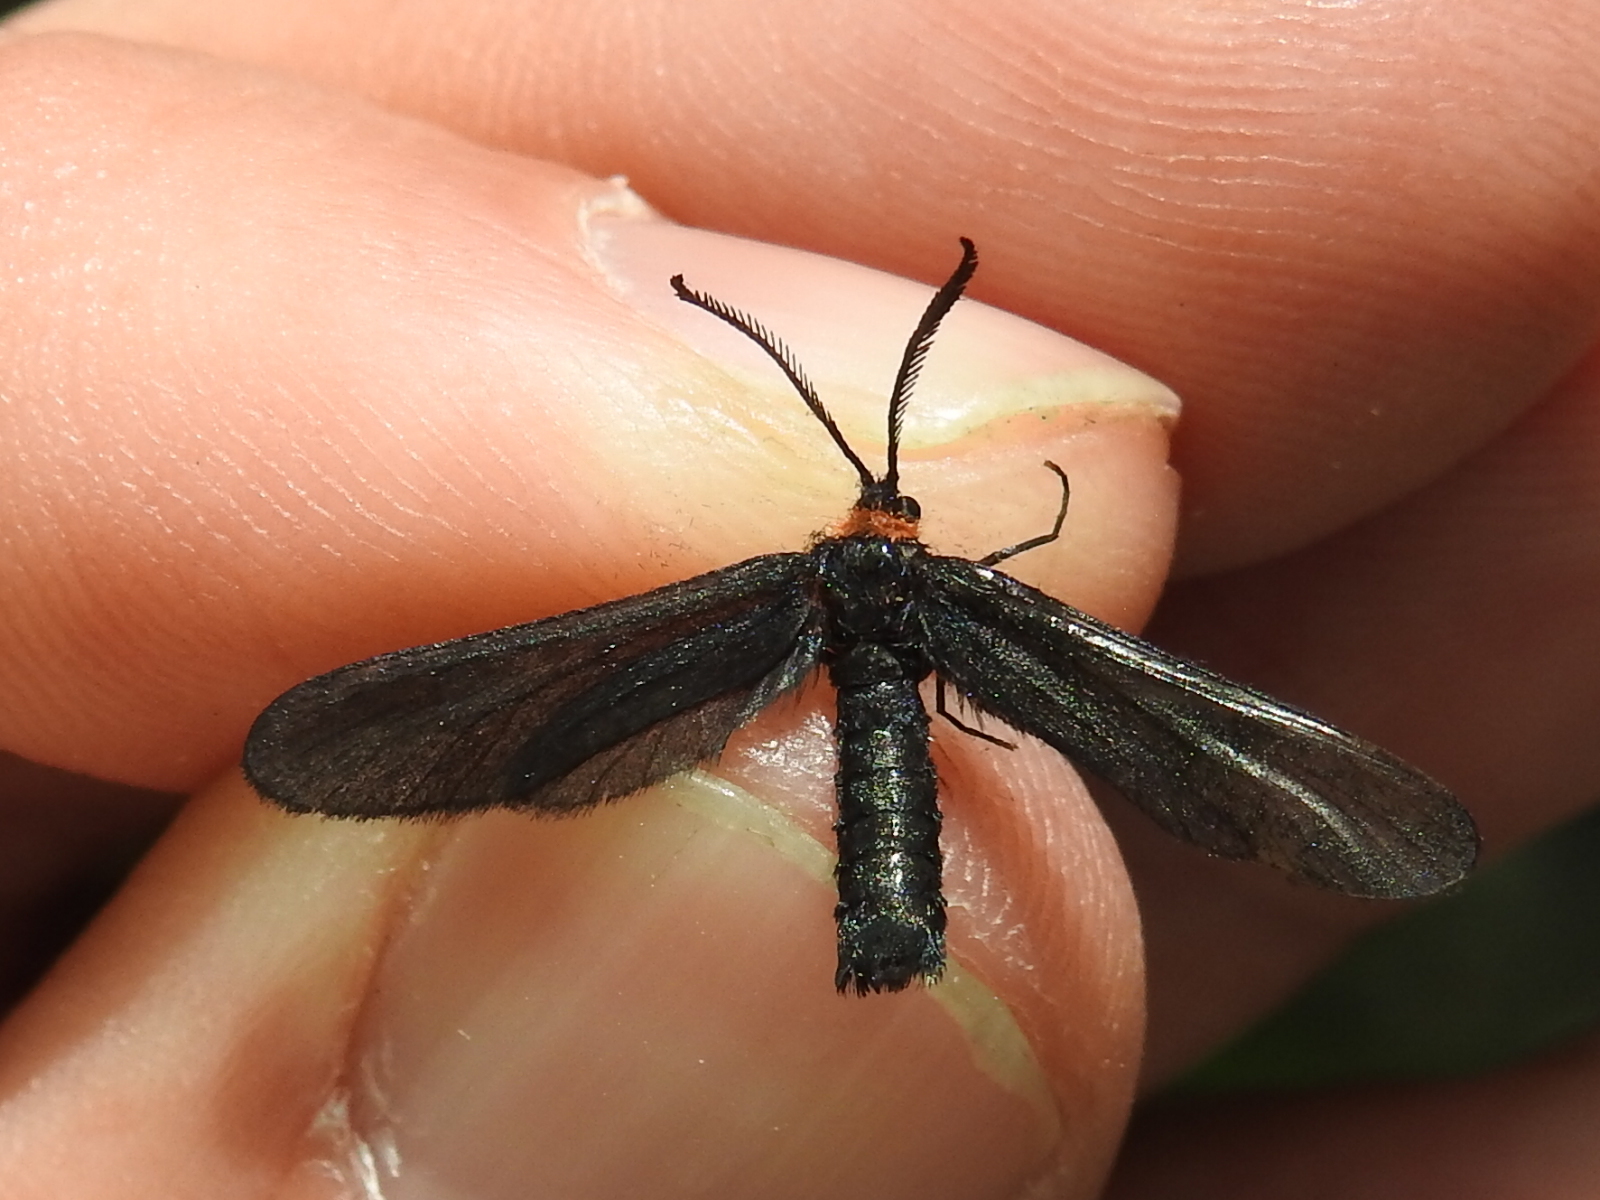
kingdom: Animalia
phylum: Arthropoda
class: Insecta
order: Lepidoptera
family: Zygaenidae
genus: Harrisina
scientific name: Harrisina americana
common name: Grapeleaf skeletonizer moth
